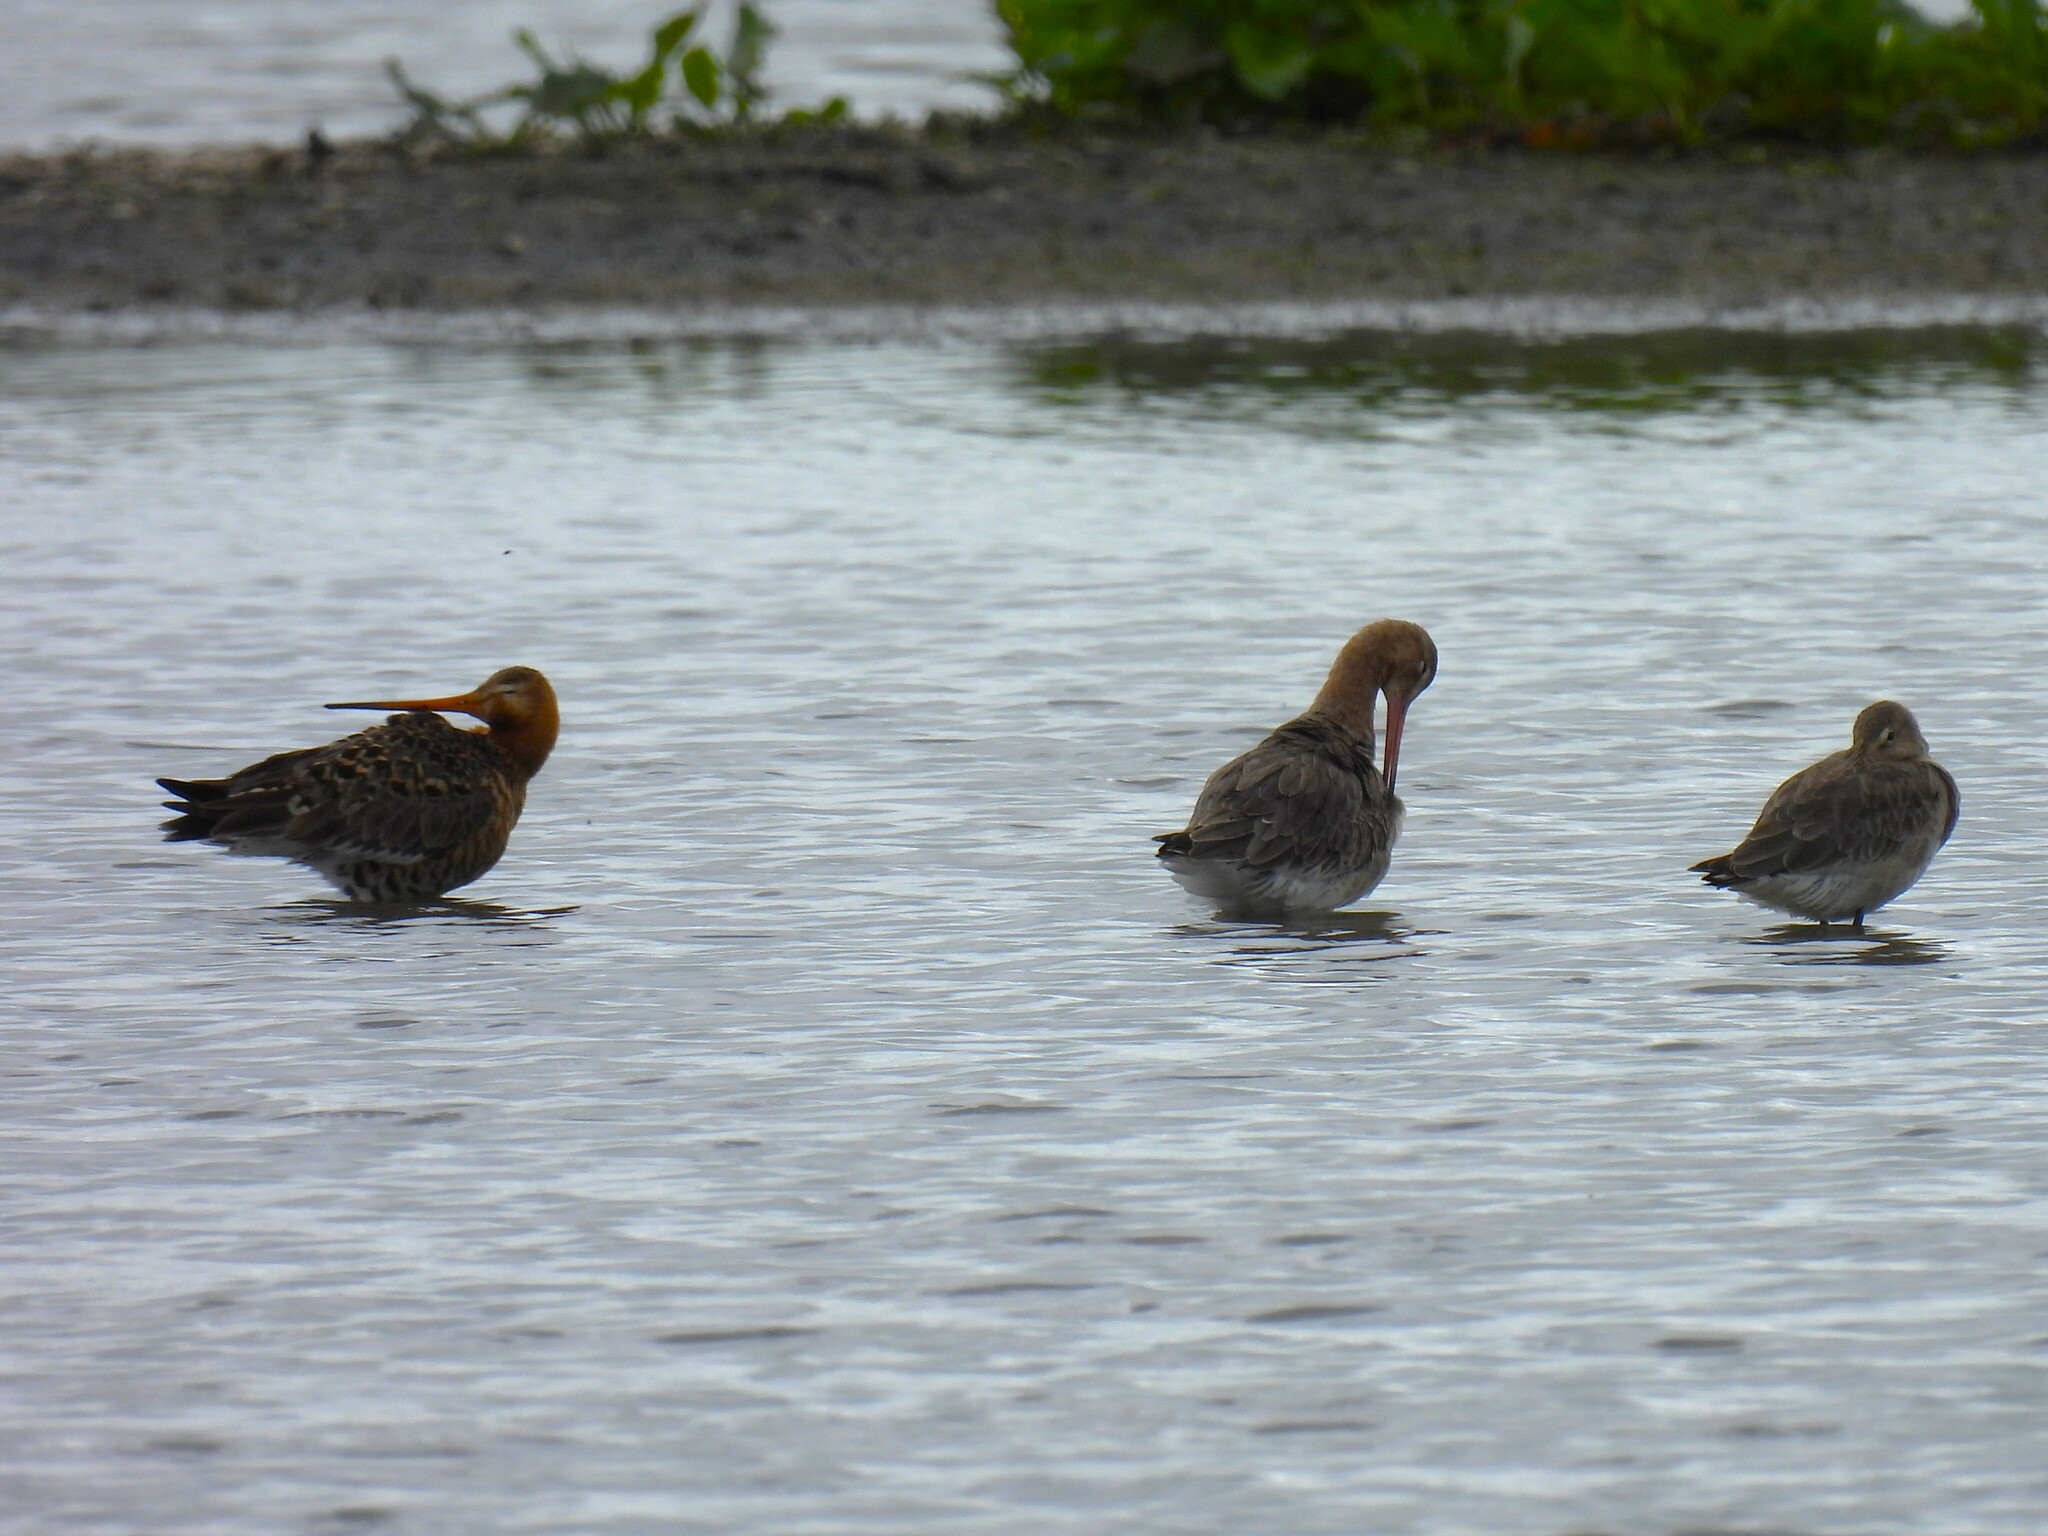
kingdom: Animalia
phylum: Chordata
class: Aves
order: Charadriiformes
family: Scolopacidae
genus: Limosa
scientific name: Limosa limosa
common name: Black-tailed godwit
